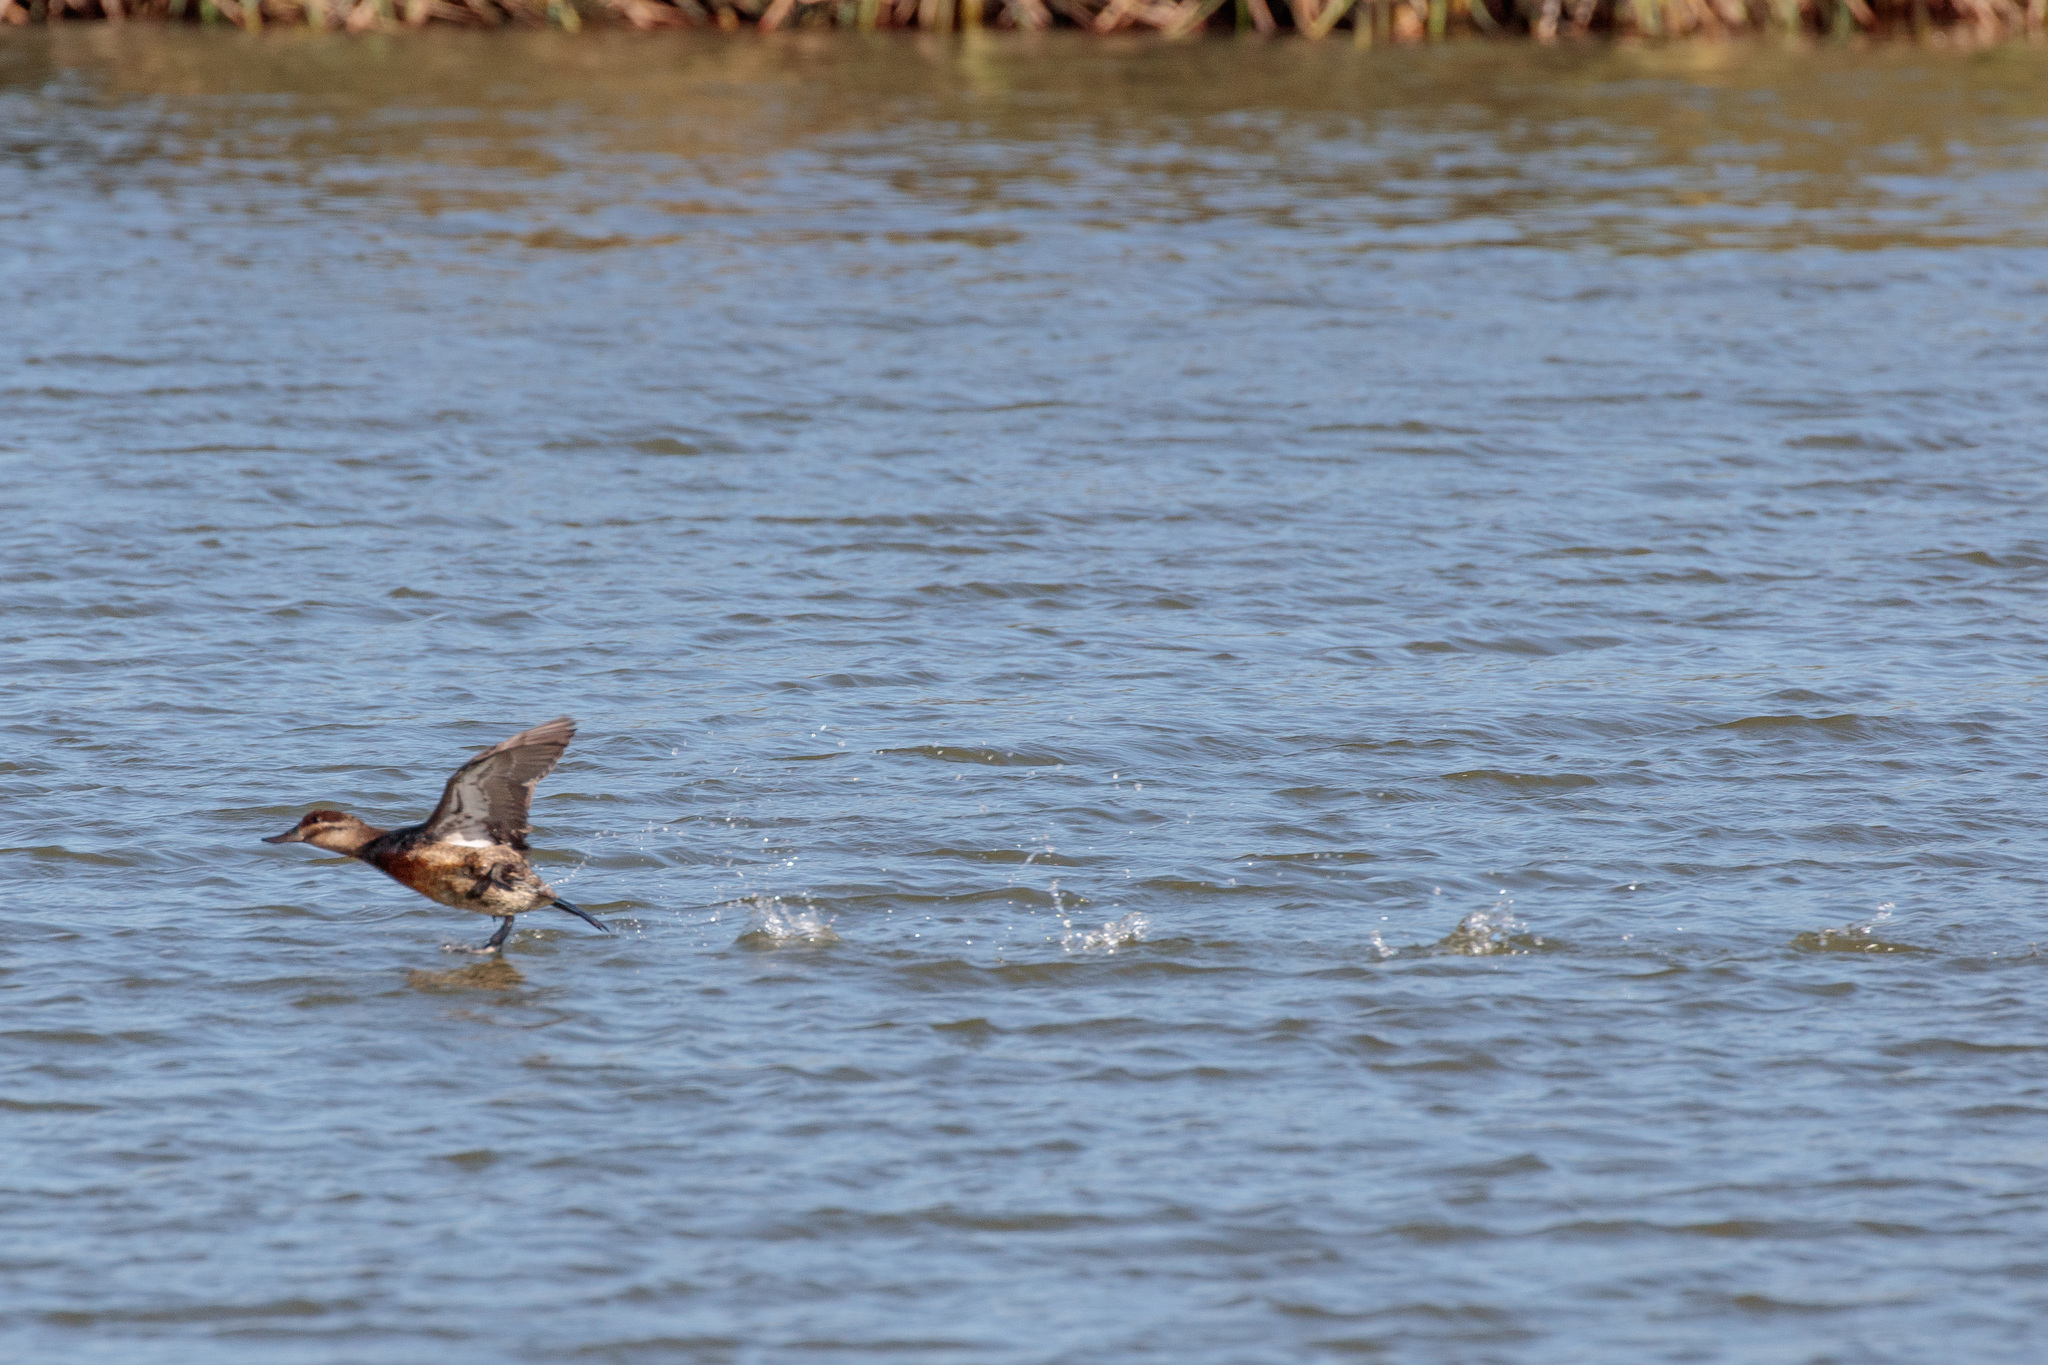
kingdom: Animalia
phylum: Chordata
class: Aves
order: Anseriformes
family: Anatidae
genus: Oxyura
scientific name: Oxyura jamaicensis
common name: Ruddy duck
